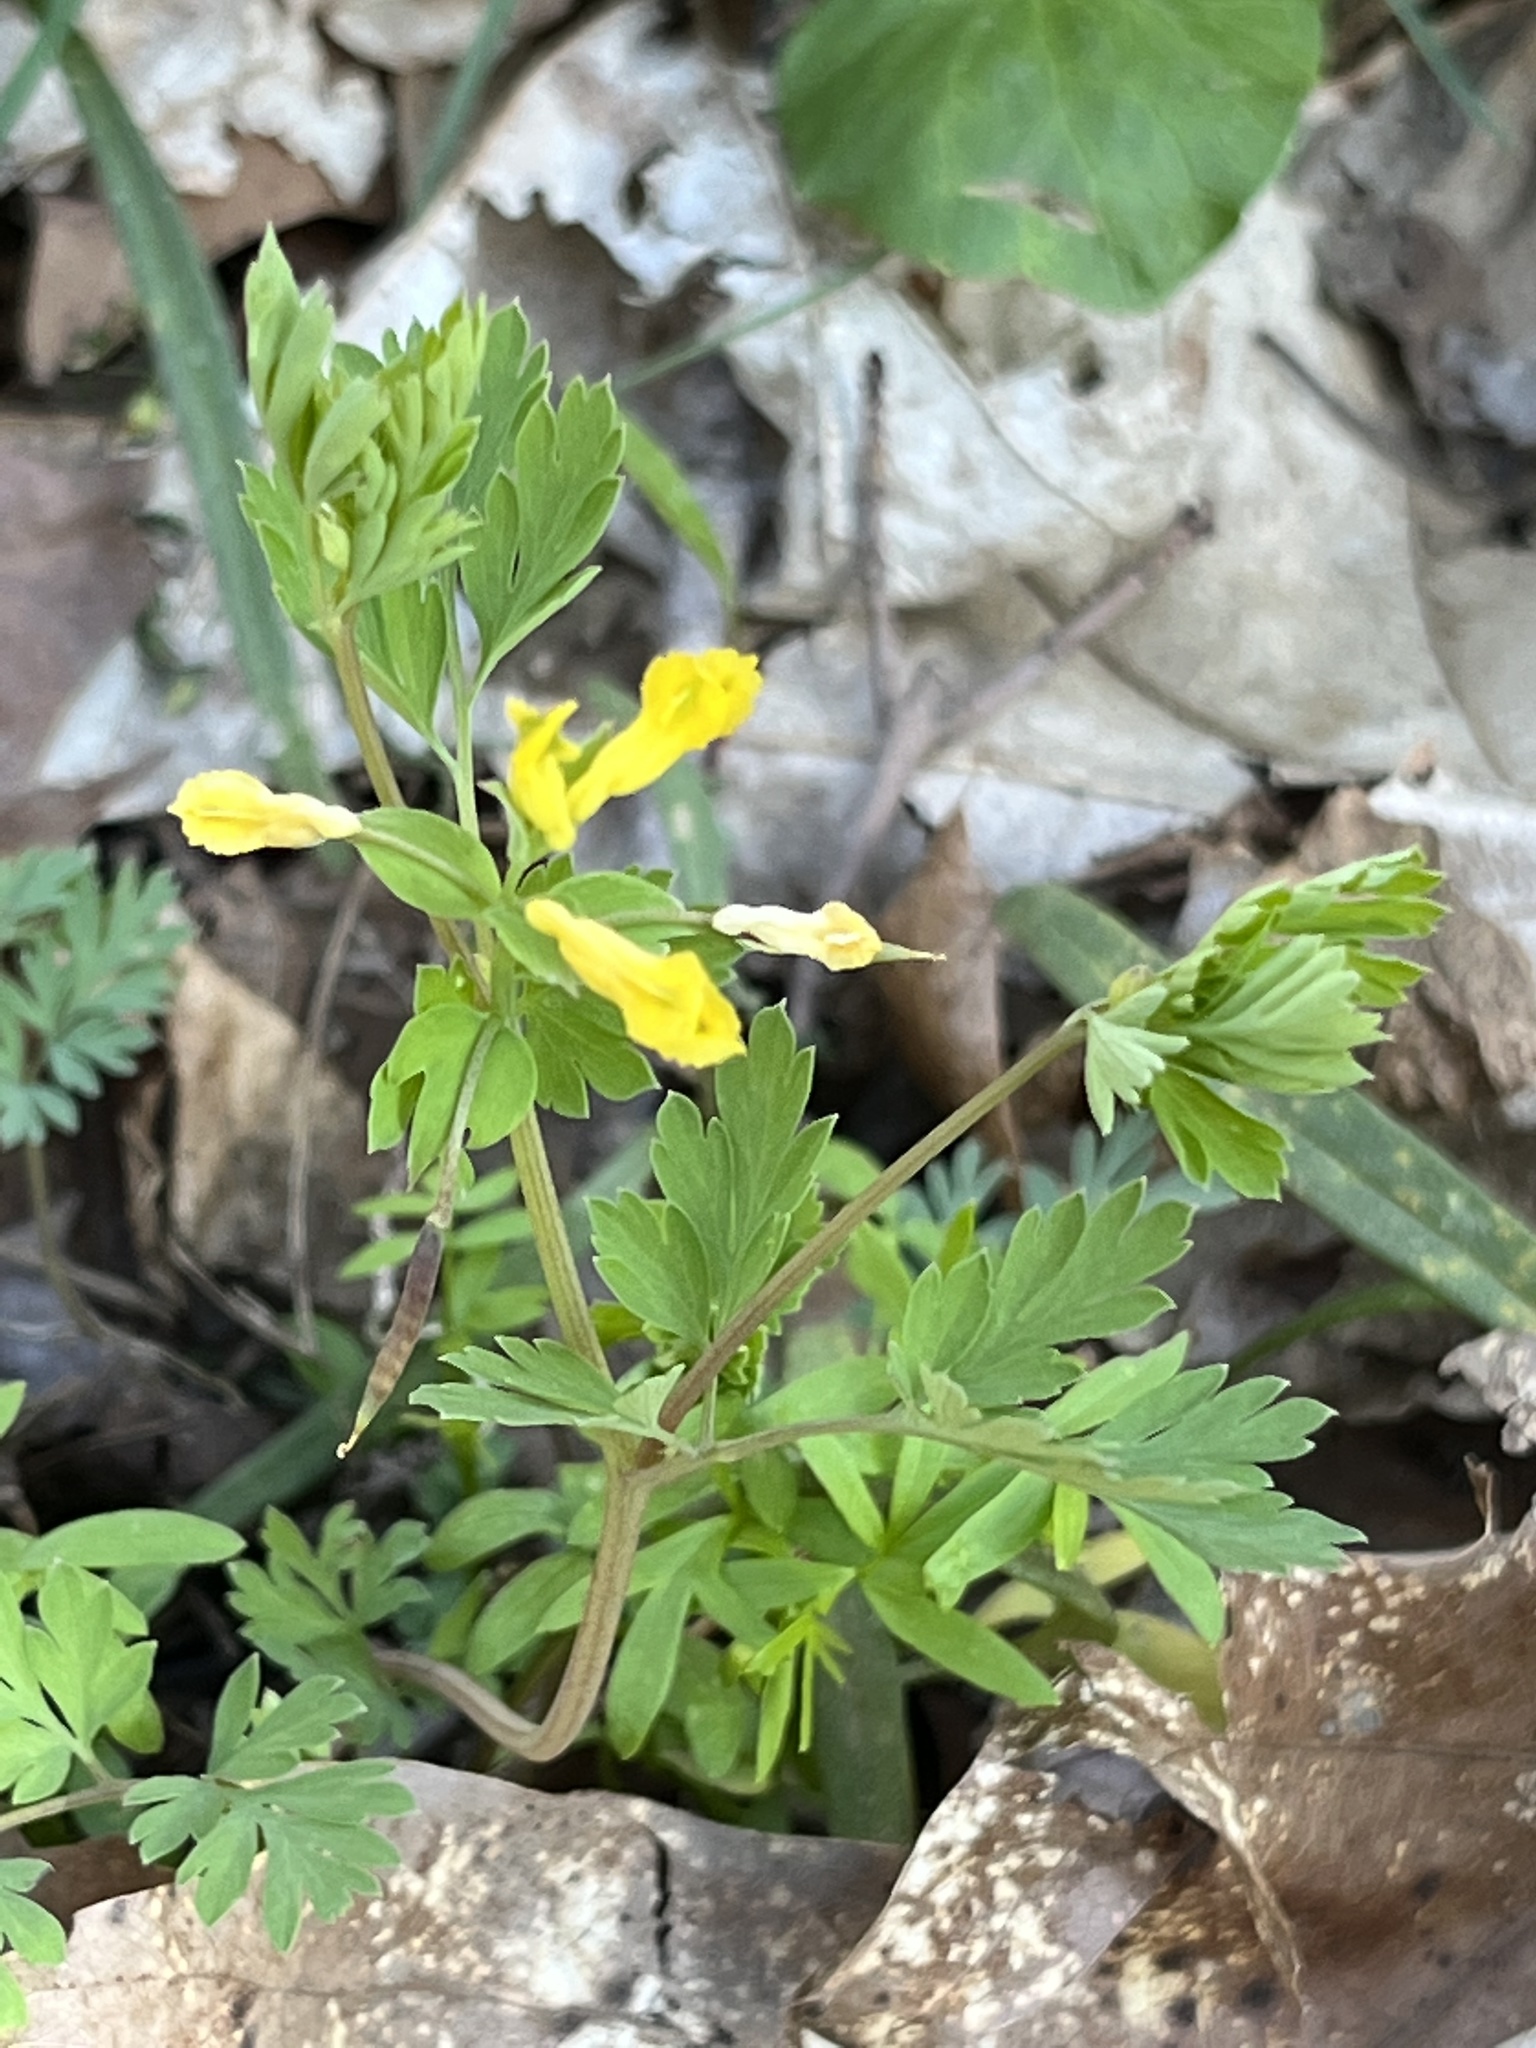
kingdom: Plantae
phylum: Tracheophyta
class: Magnoliopsida
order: Ranunculales
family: Papaveraceae
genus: Corydalis
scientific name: Corydalis flavula
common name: Yellow corydalis
